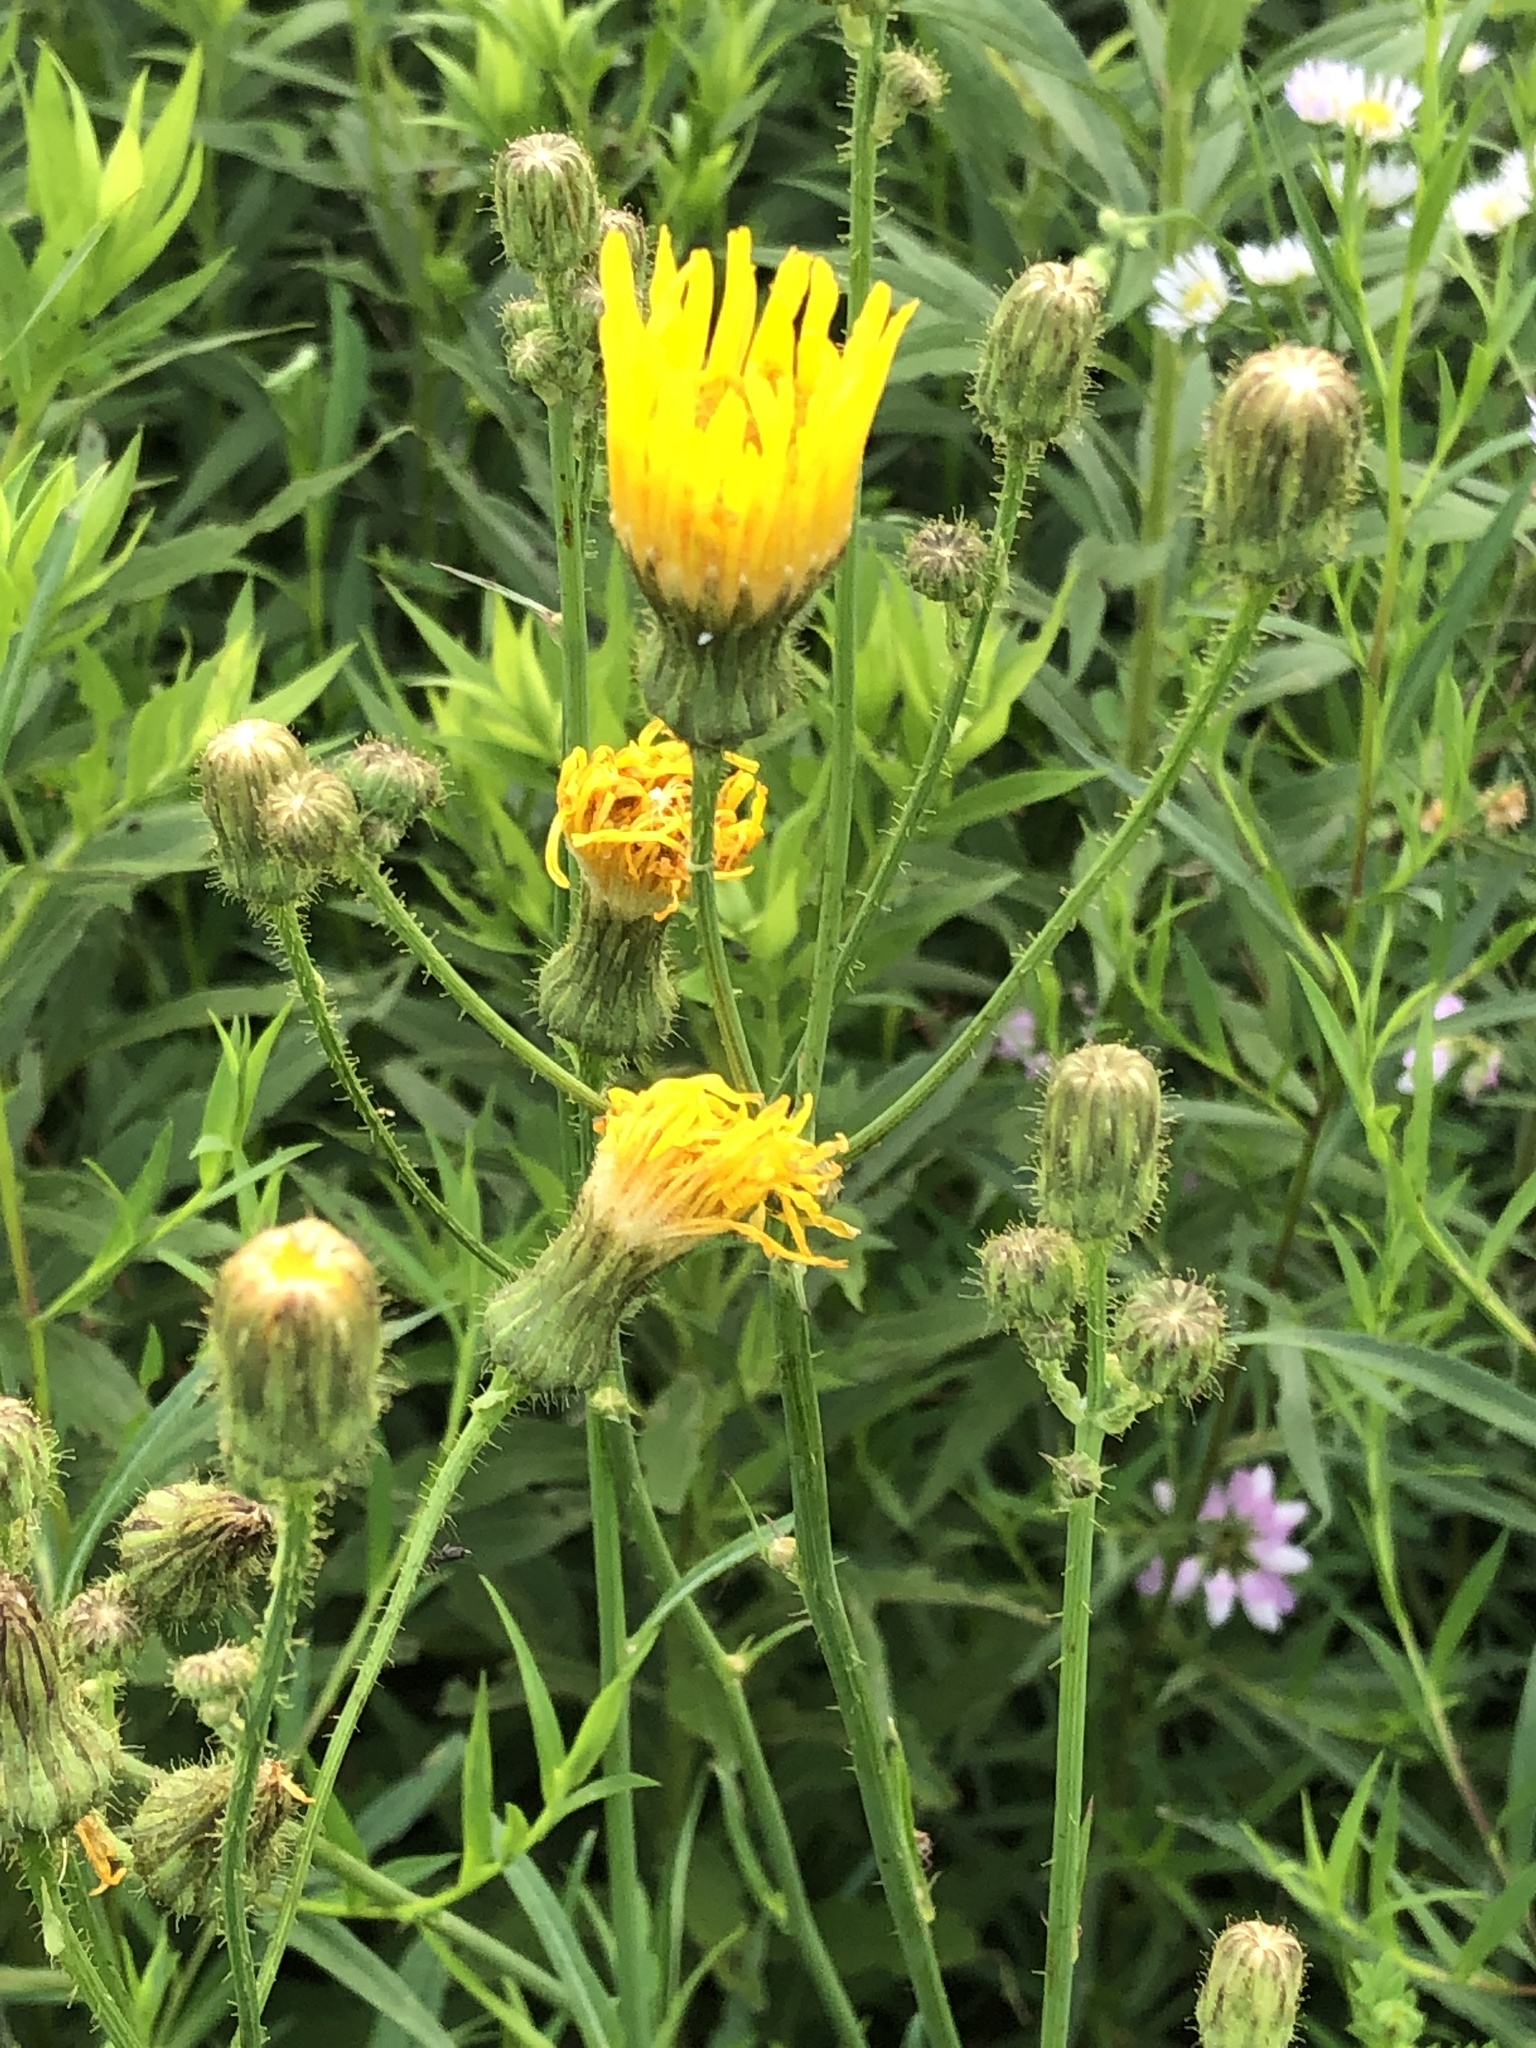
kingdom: Plantae
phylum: Tracheophyta
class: Magnoliopsida
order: Asterales
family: Asteraceae
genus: Sonchus
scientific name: Sonchus arvensis
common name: Perennial sow-thistle
